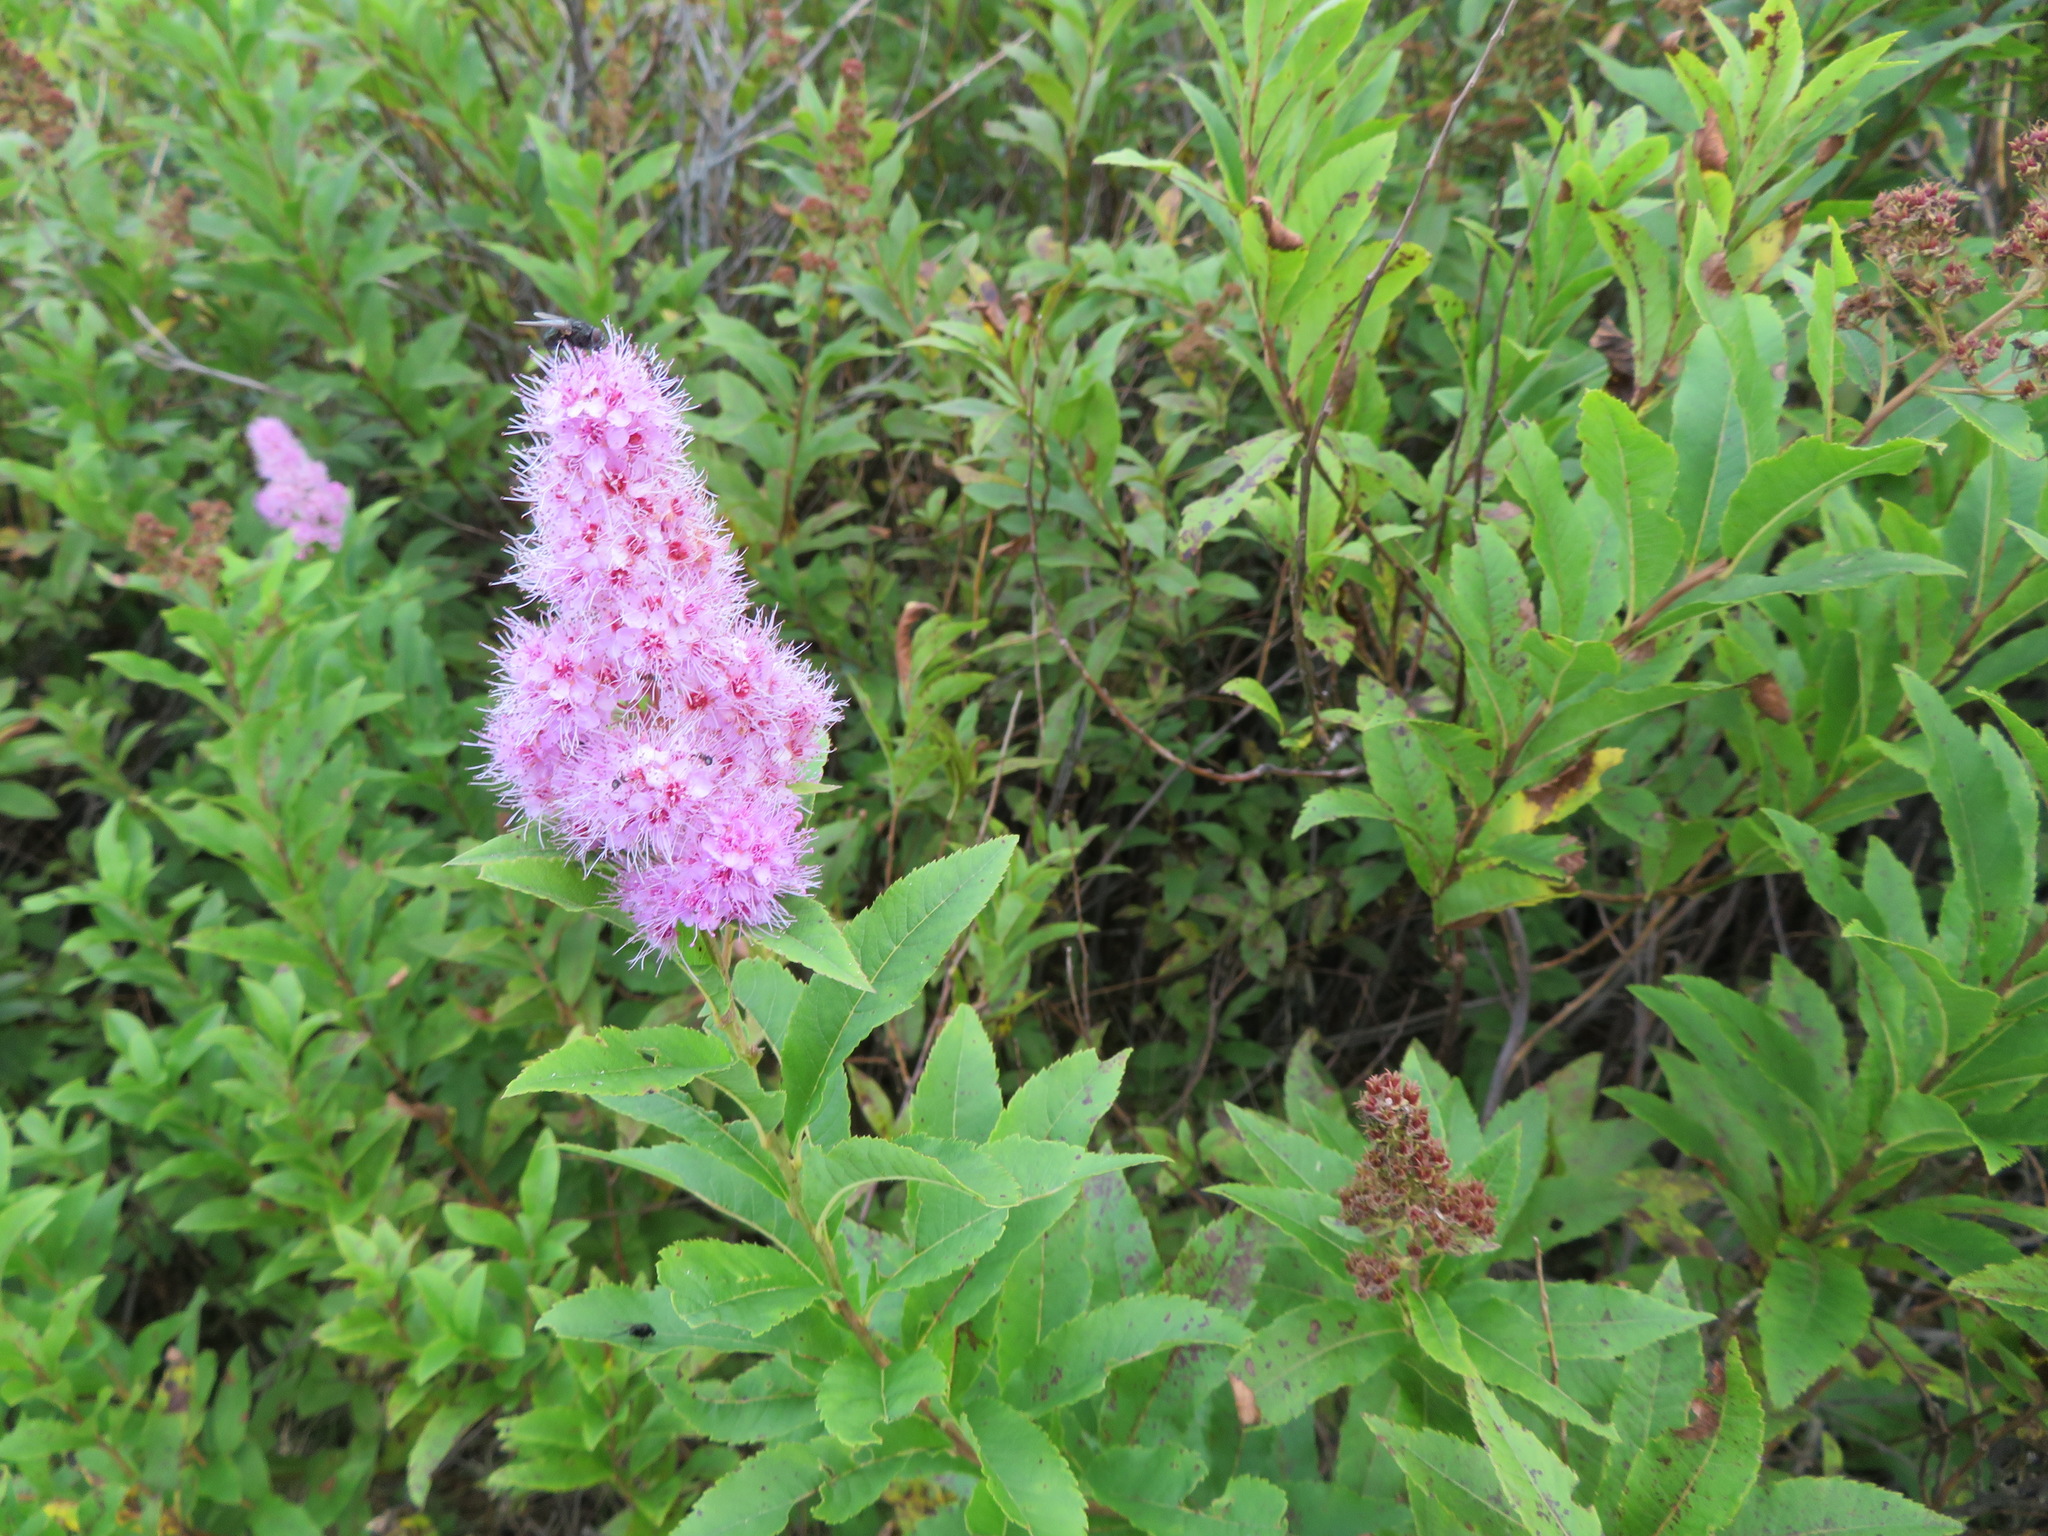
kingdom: Plantae
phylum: Tracheophyta
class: Magnoliopsida
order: Rosales
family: Rosaceae
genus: Spiraea
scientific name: Spiraea salicifolia
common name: Bridewort
